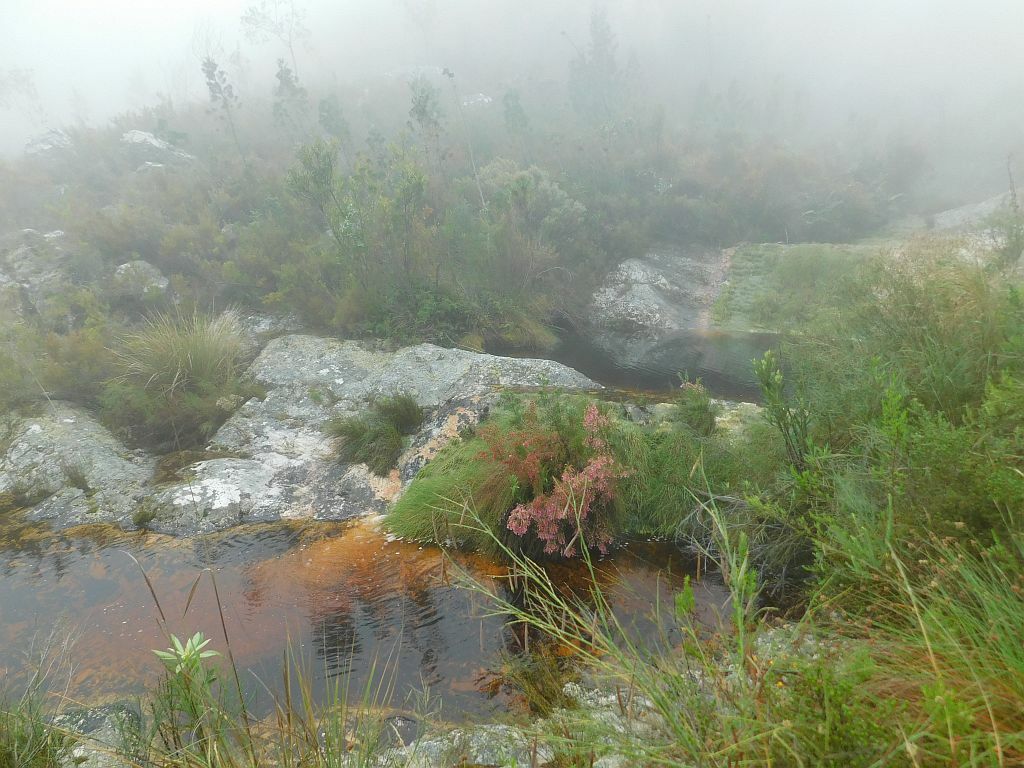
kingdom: Plantae
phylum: Tracheophyta
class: Magnoliopsida
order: Ericales
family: Ericaceae
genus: Erica
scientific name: Erica curviflora
